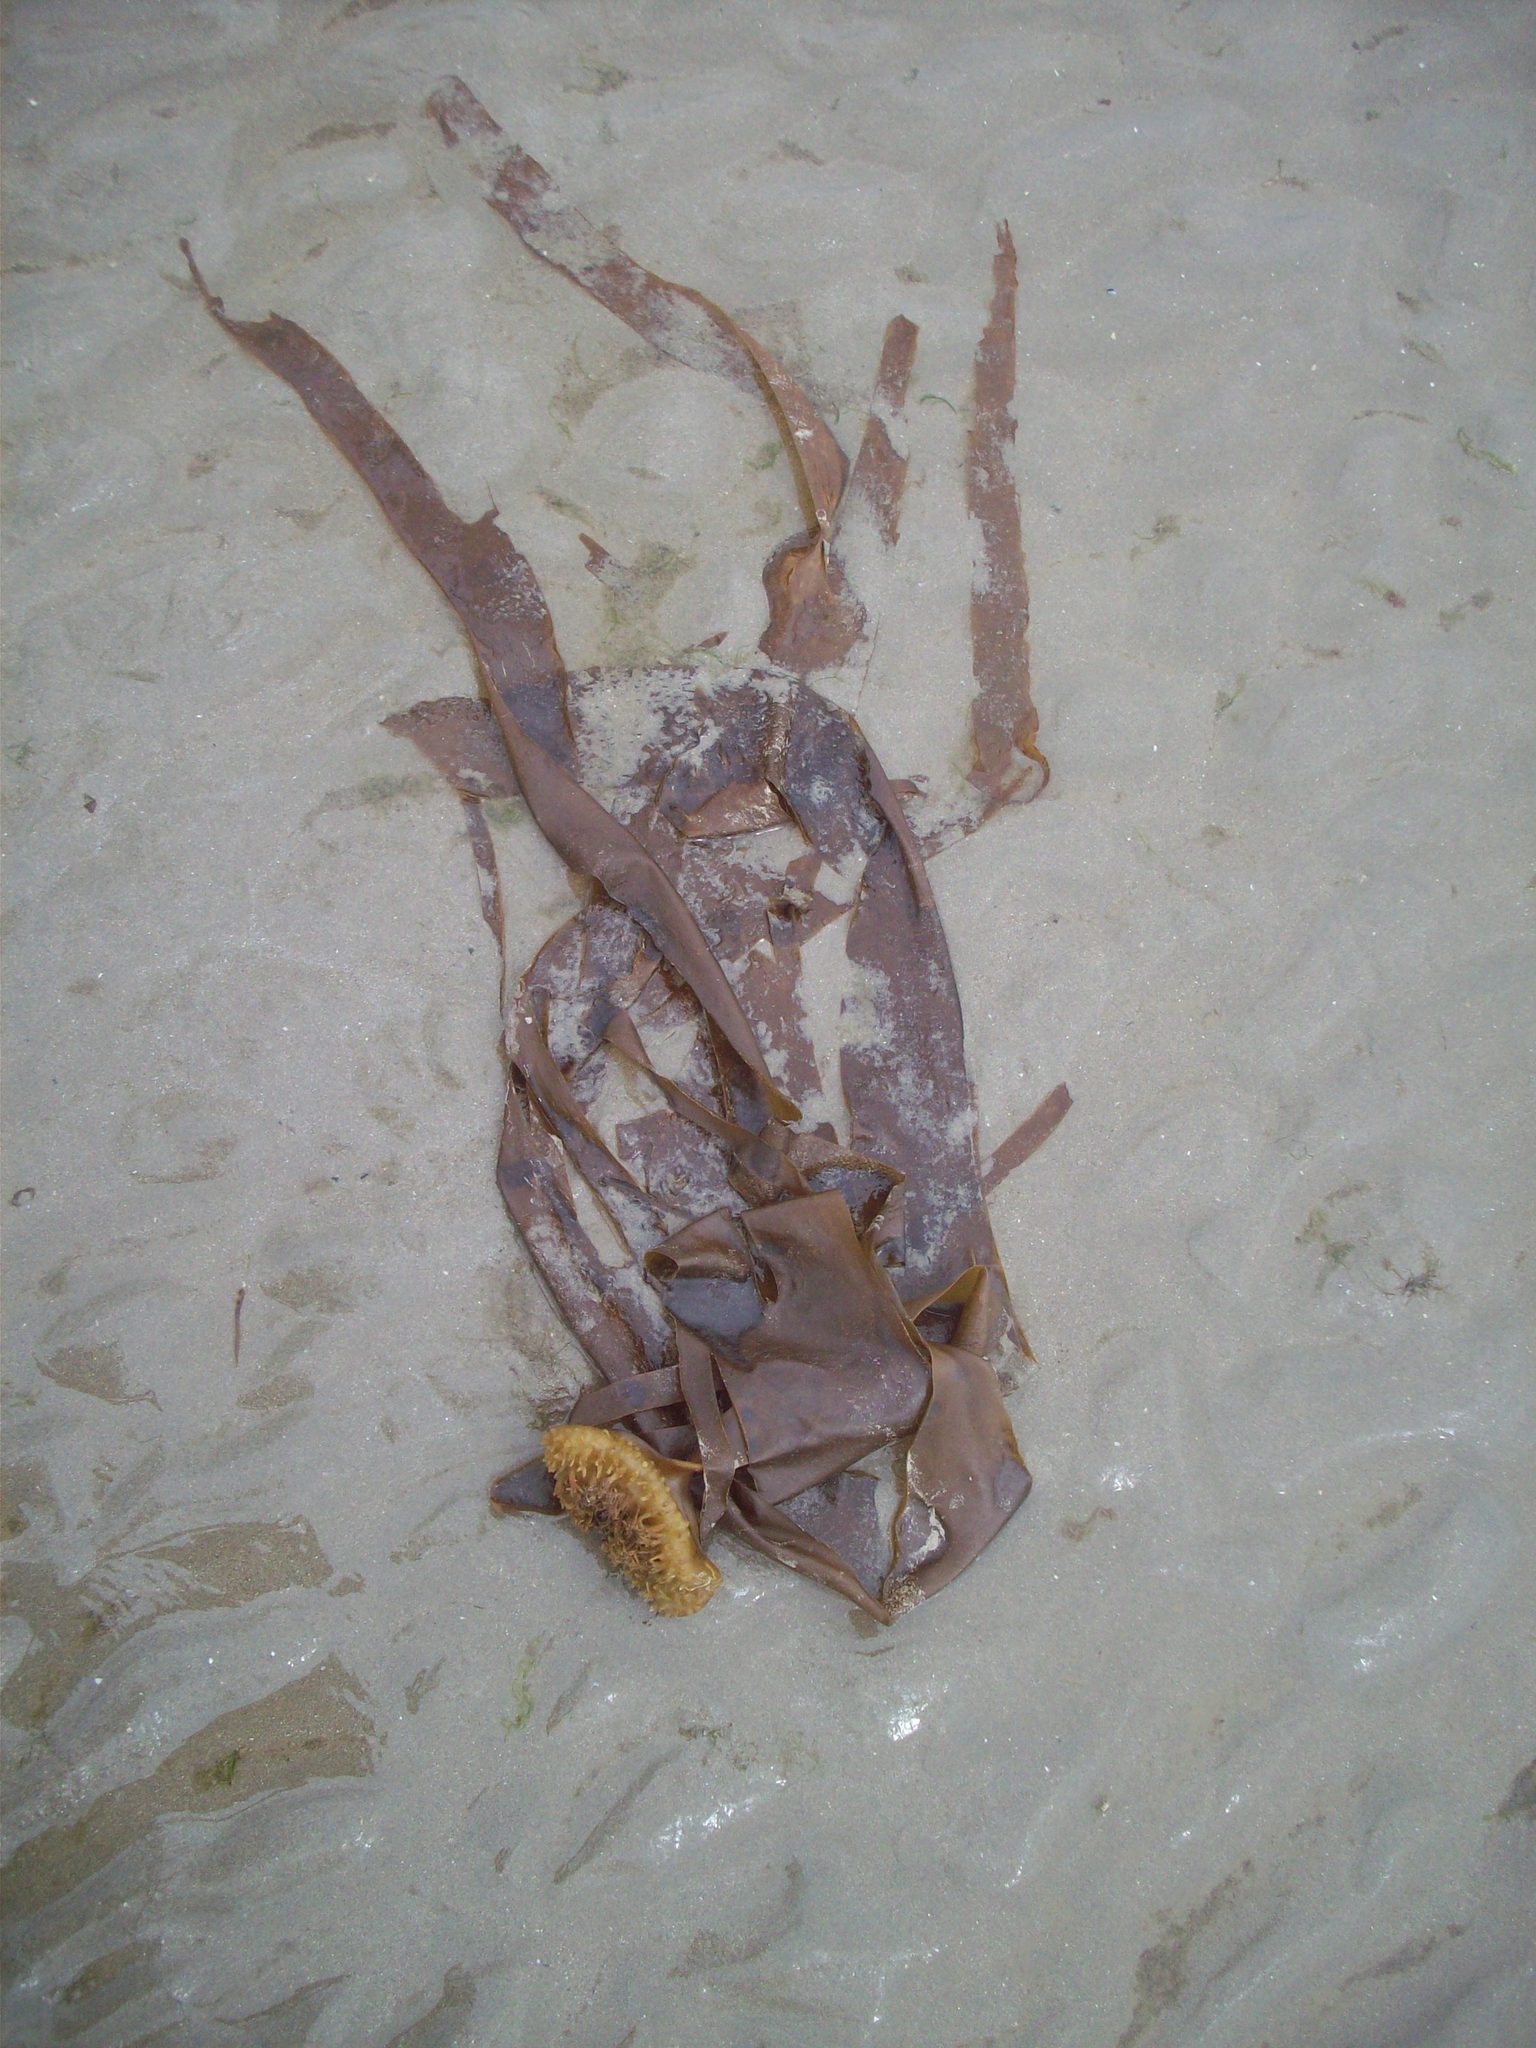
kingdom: Chromista
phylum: Ochrophyta
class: Phaeophyceae
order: Tilopteridales
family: Phyllariaceae
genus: Saccorhiza
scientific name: Saccorhiza polyschides
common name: Furbelows
